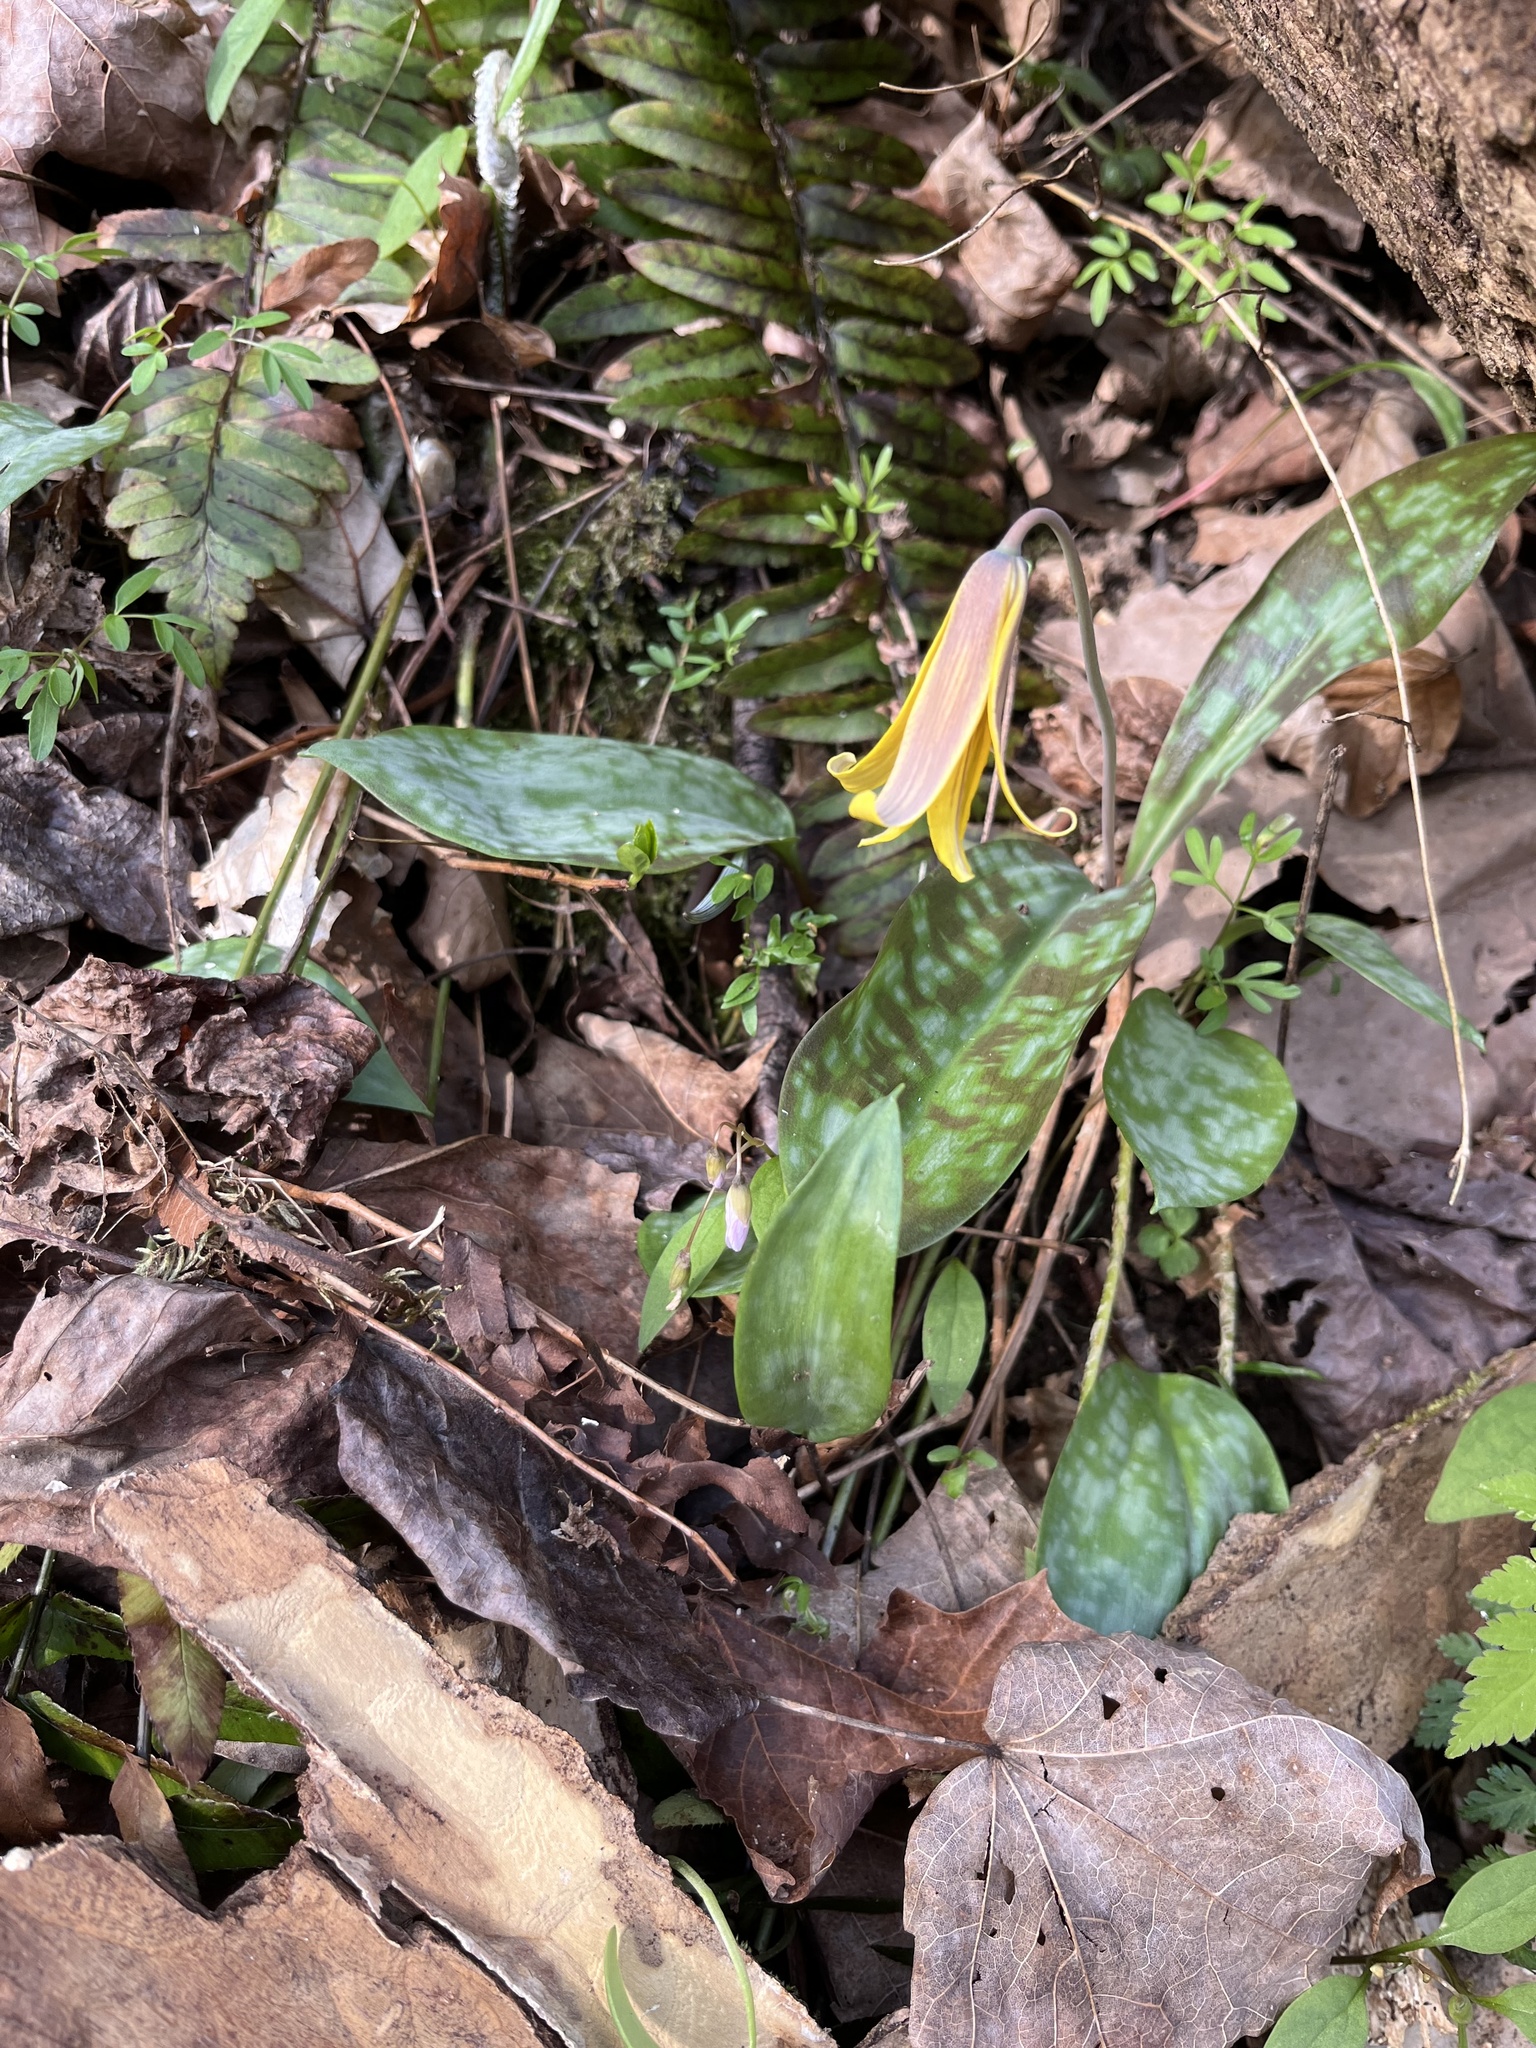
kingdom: Plantae
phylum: Tracheophyta
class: Liliopsida
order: Liliales
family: Liliaceae
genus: Erythronium
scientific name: Erythronium americanum
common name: Yellow adder's-tongue
